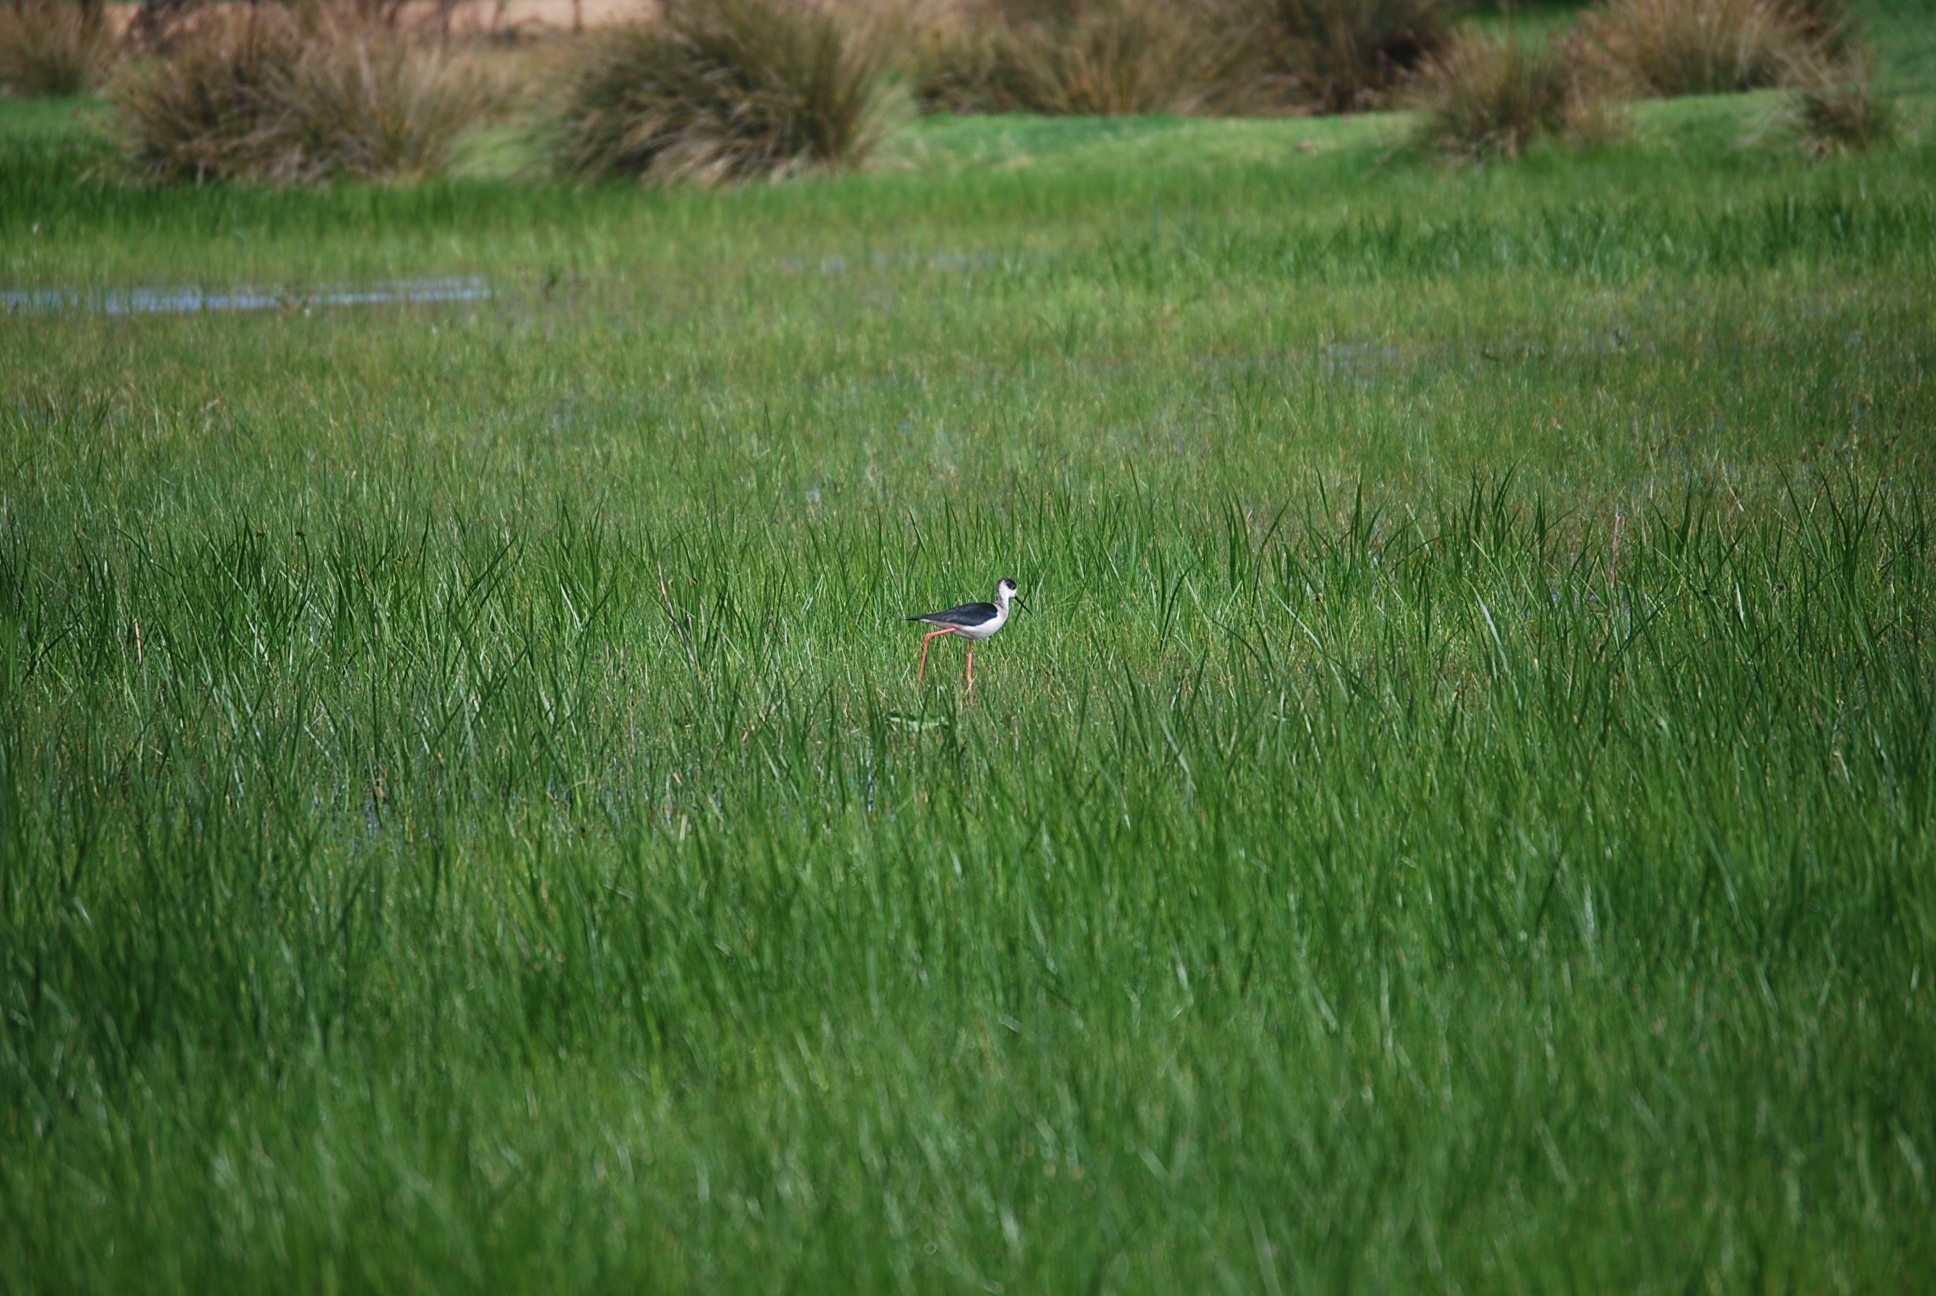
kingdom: Animalia
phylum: Chordata
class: Aves
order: Charadriiformes
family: Recurvirostridae
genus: Himantopus
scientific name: Himantopus himantopus
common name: Black-winged stilt
